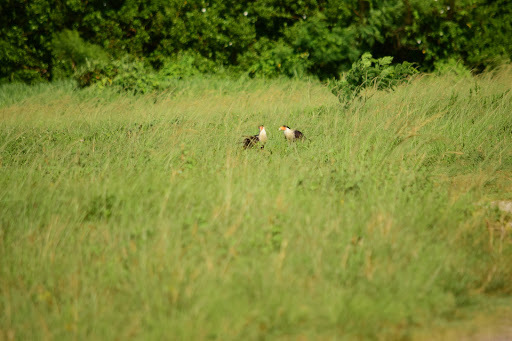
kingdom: Animalia
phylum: Chordata
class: Aves
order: Falconiformes
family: Falconidae
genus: Caracara
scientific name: Caracara plancus
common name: Southern caracara
